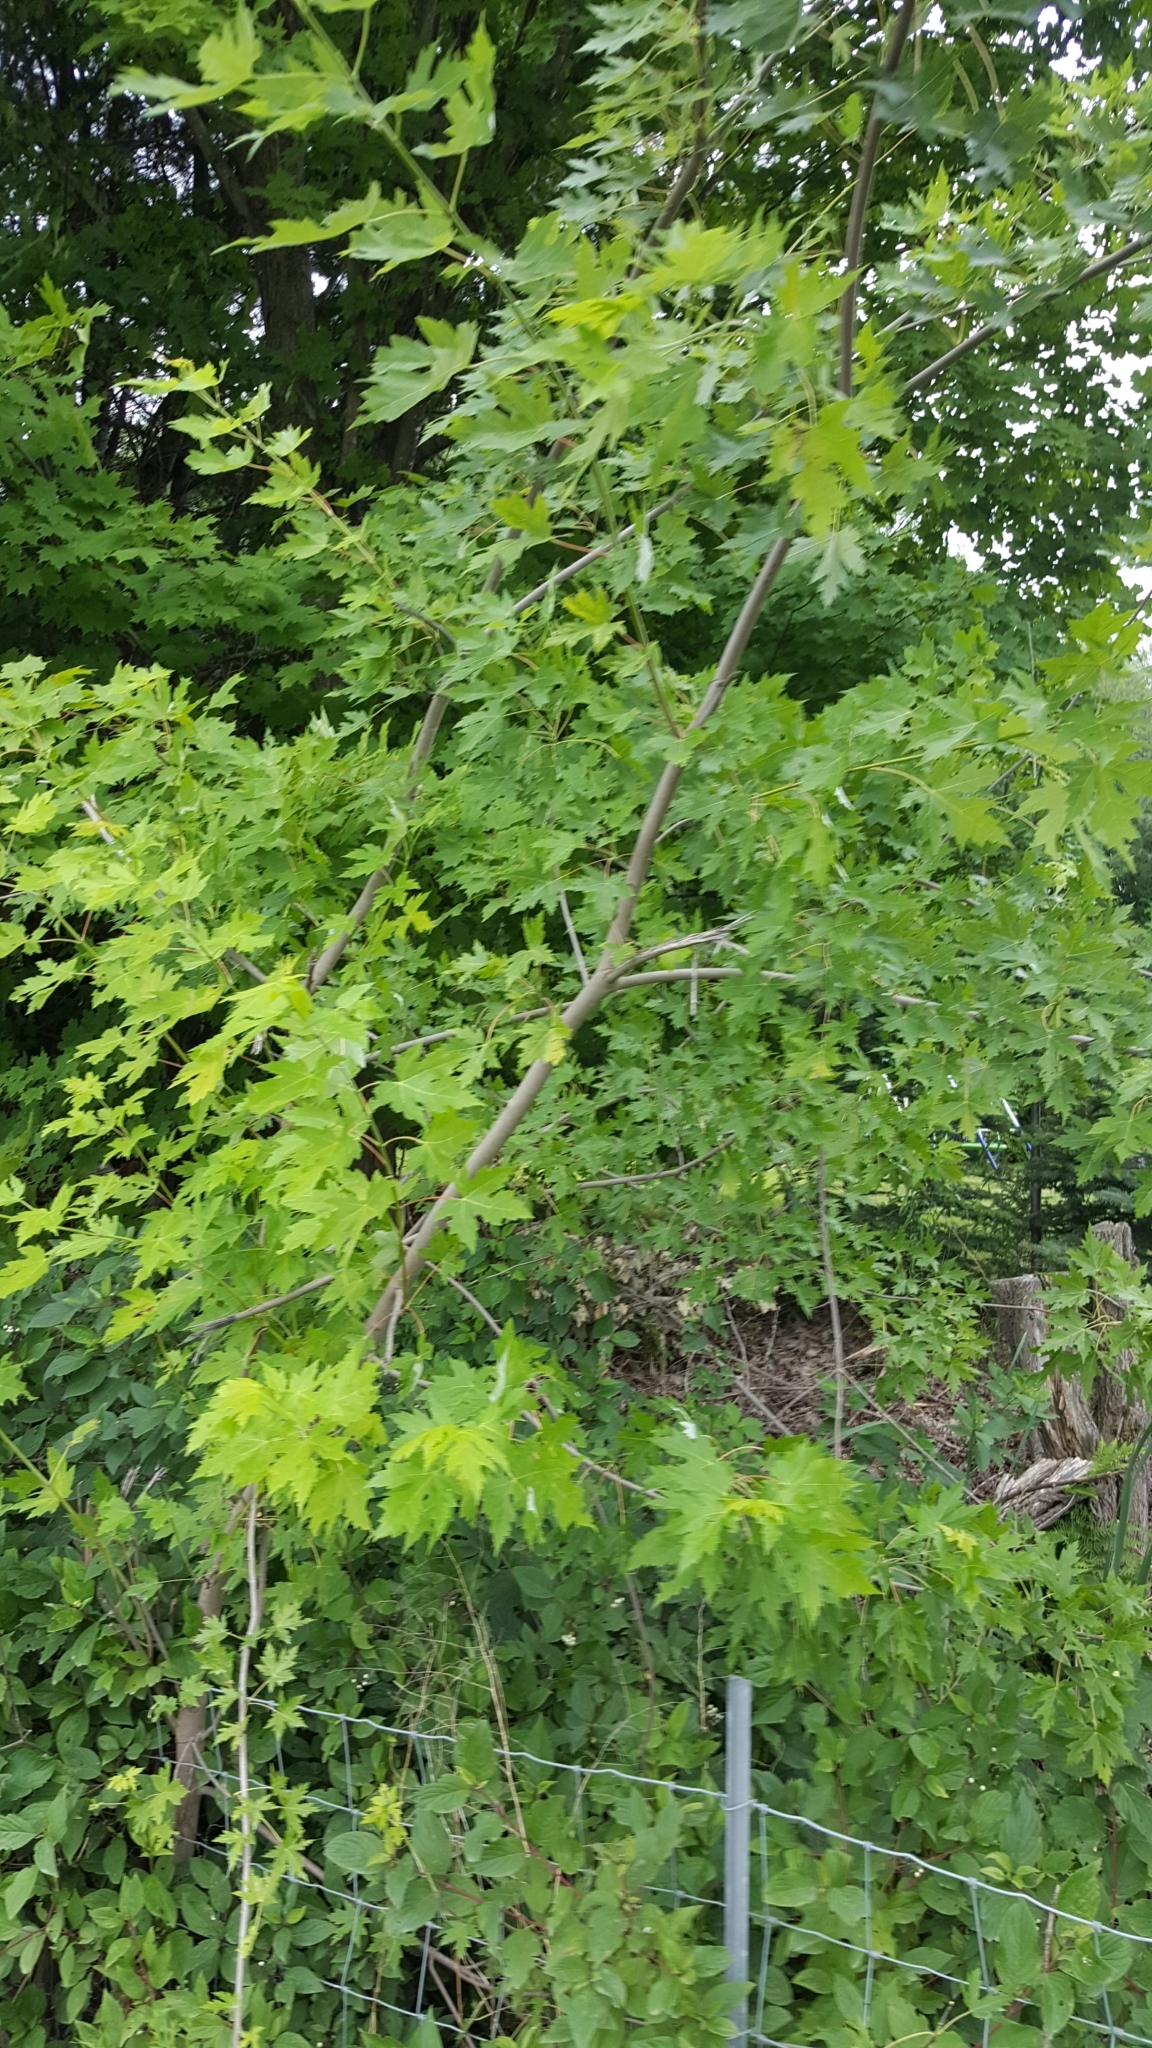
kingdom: Plantae
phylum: Tracheophyta
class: Magnoliopsida
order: Sapindales
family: Sapindaceae
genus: Acer
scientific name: Acer saccharinum
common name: Silver maple
